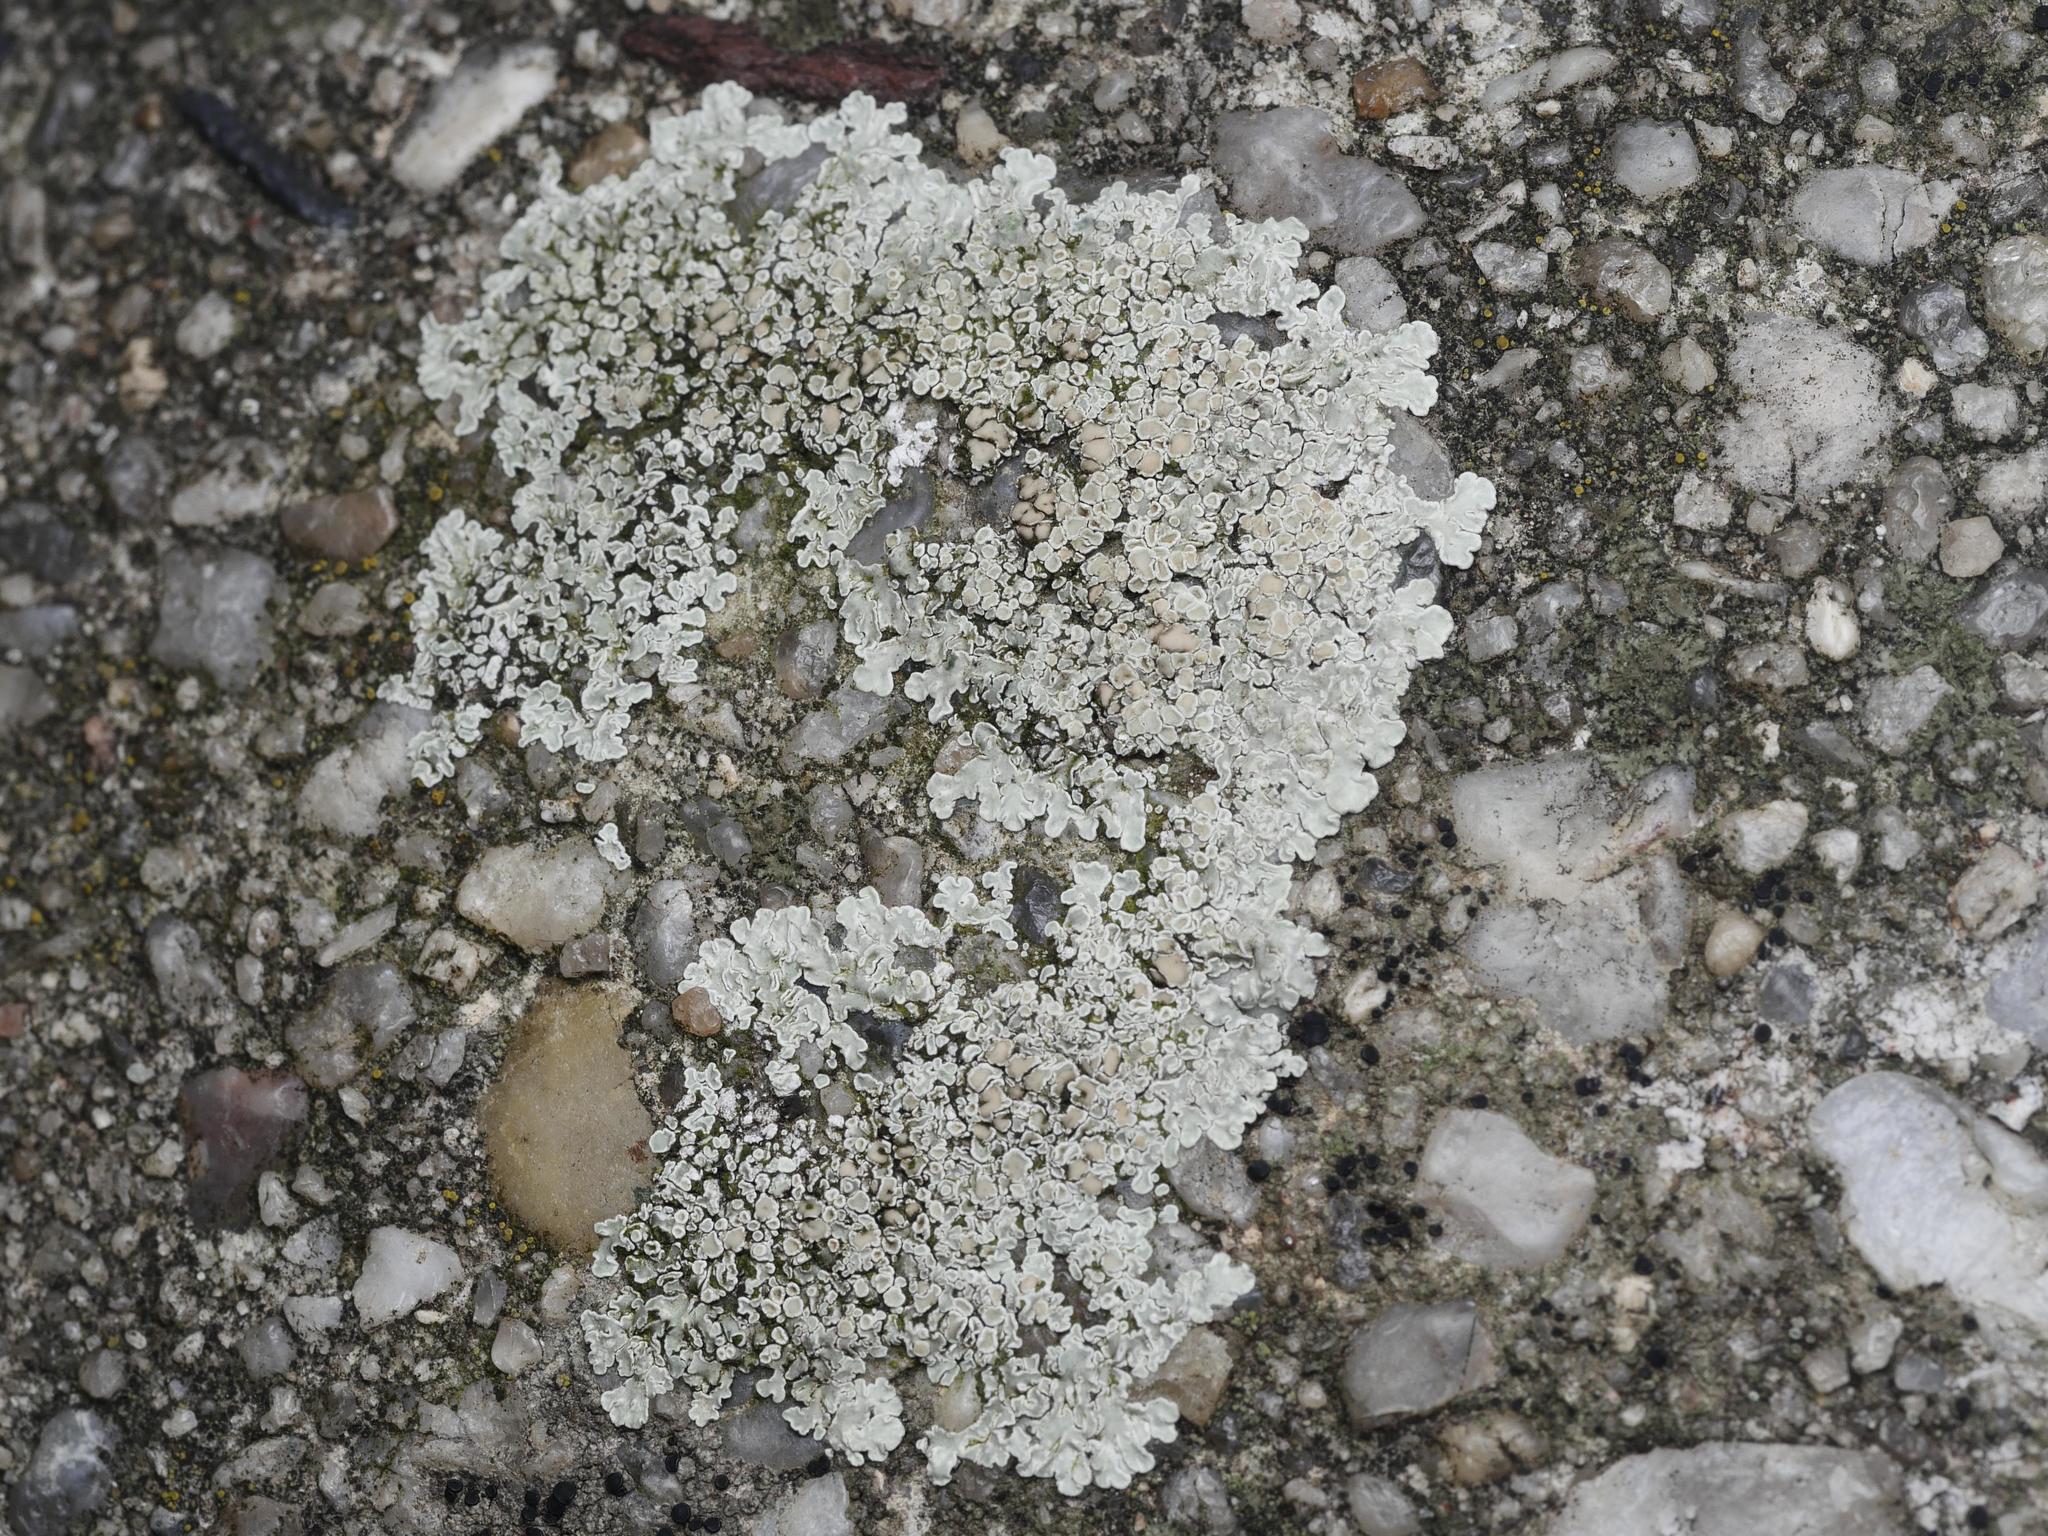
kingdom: Fungi
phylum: Ascomycota
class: Lecanoromycetes
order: Lecanorales
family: Lecanoraceae
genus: Protoparmeliopsis
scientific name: Protoparmeliopsis muralis
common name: Stonewall rim lichen
